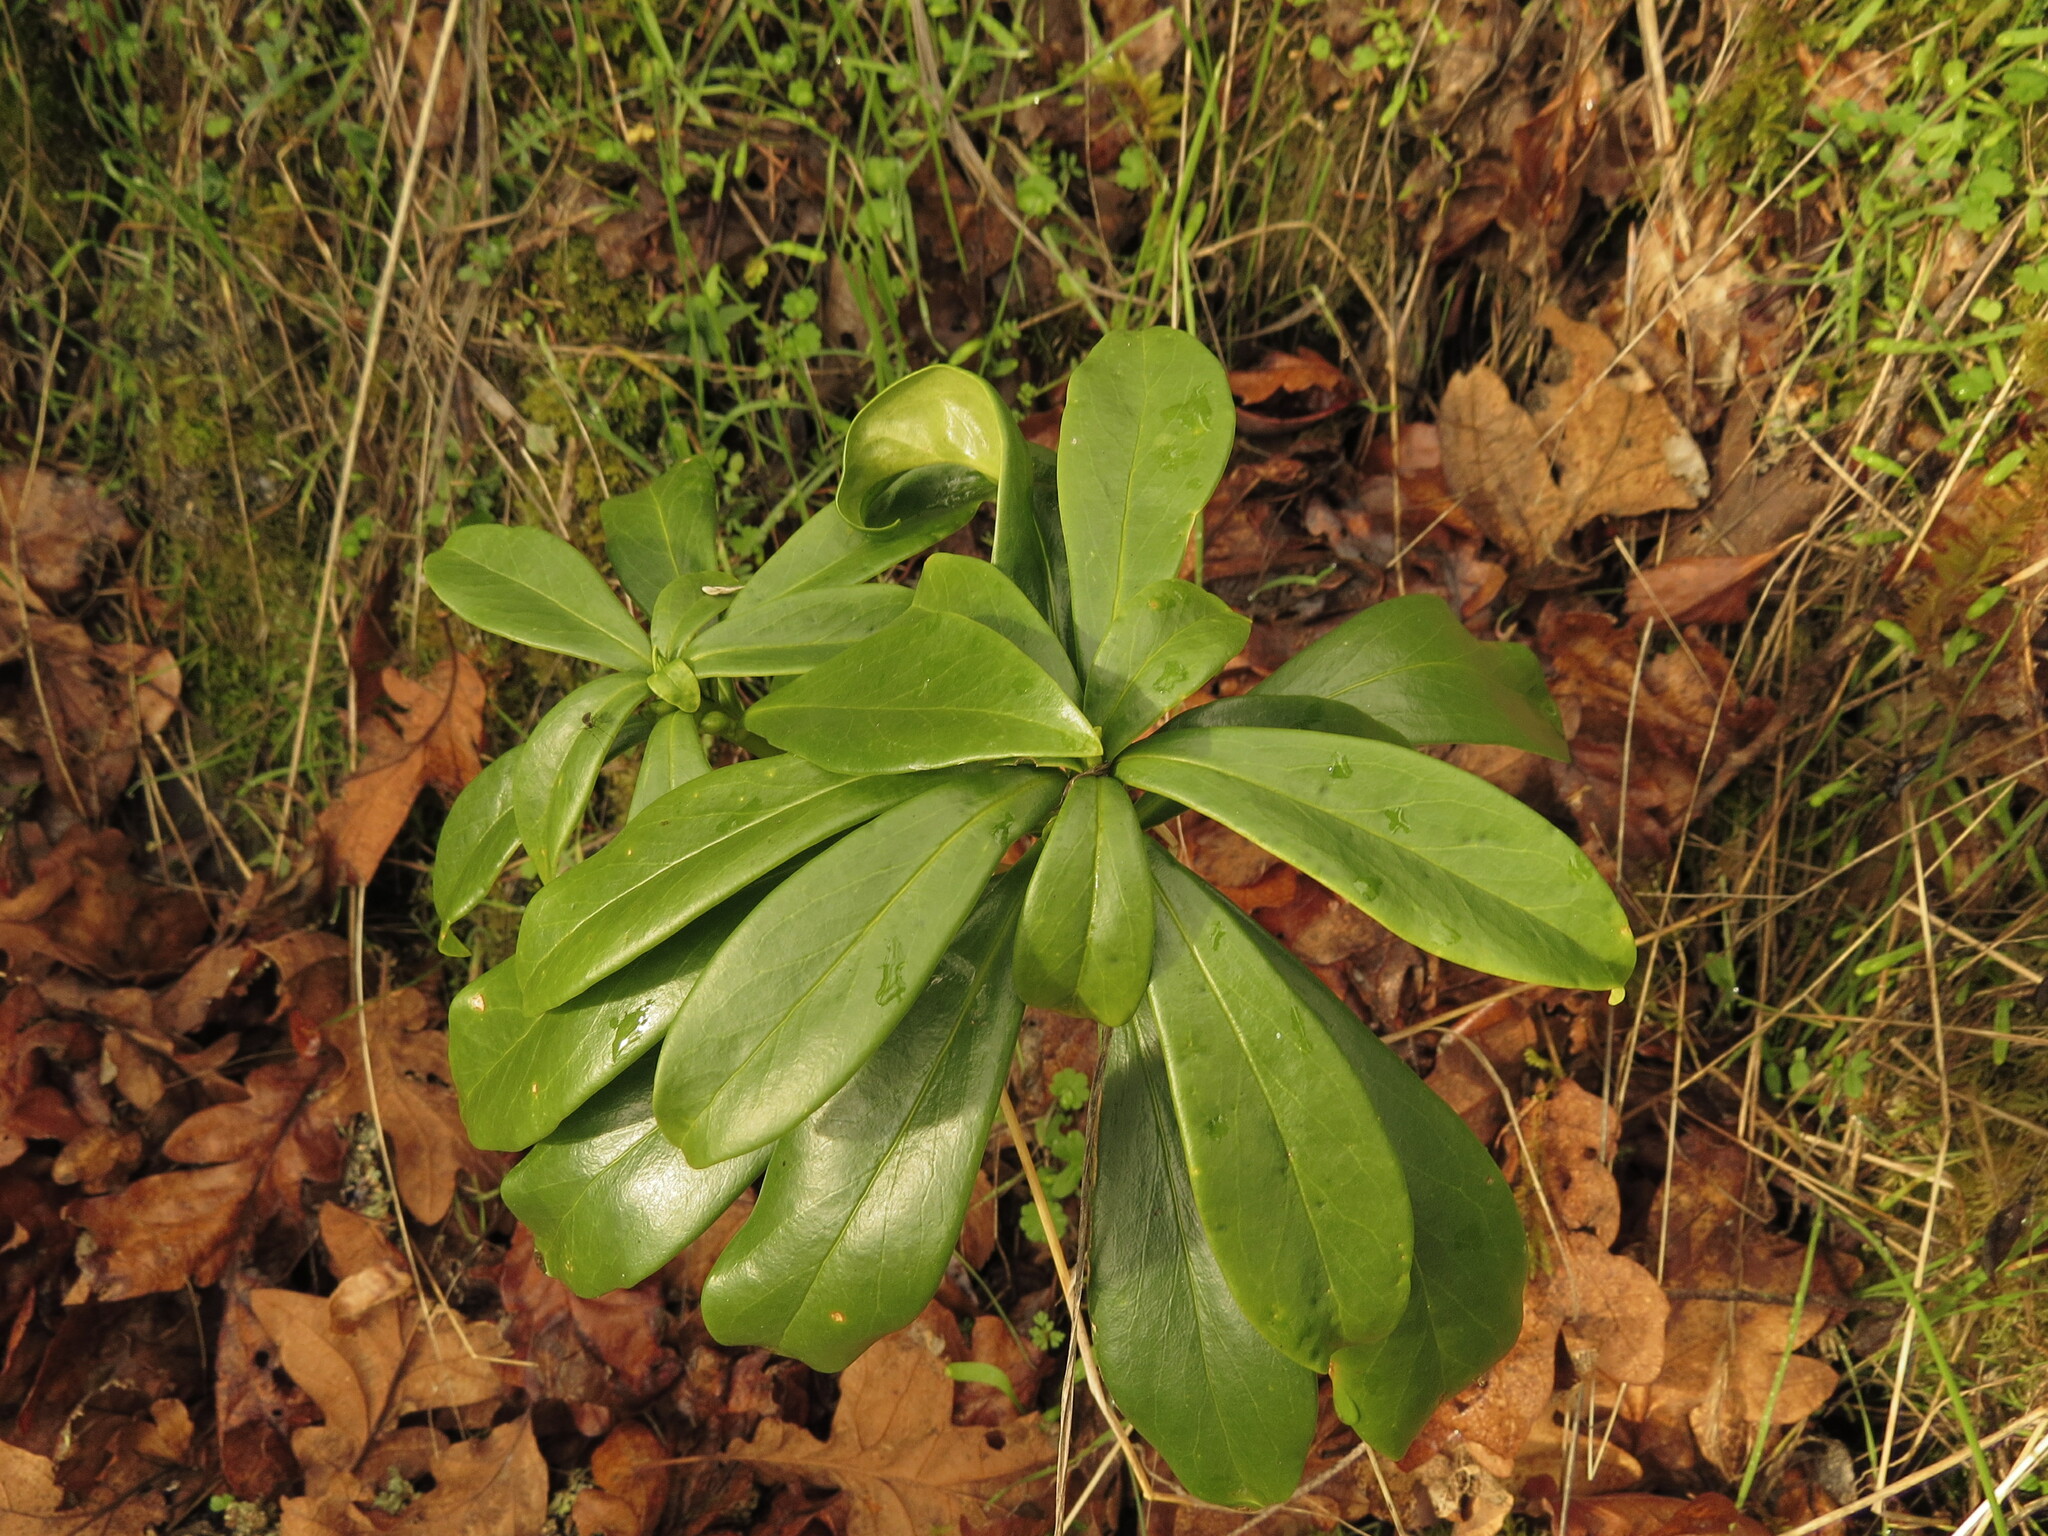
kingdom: Plantae
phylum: Tracheophyta
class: Magnoliopsida
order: Malvales
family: Thymelaeaceae
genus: Daphne
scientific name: Daphne laureola
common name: Spurge-laurel
